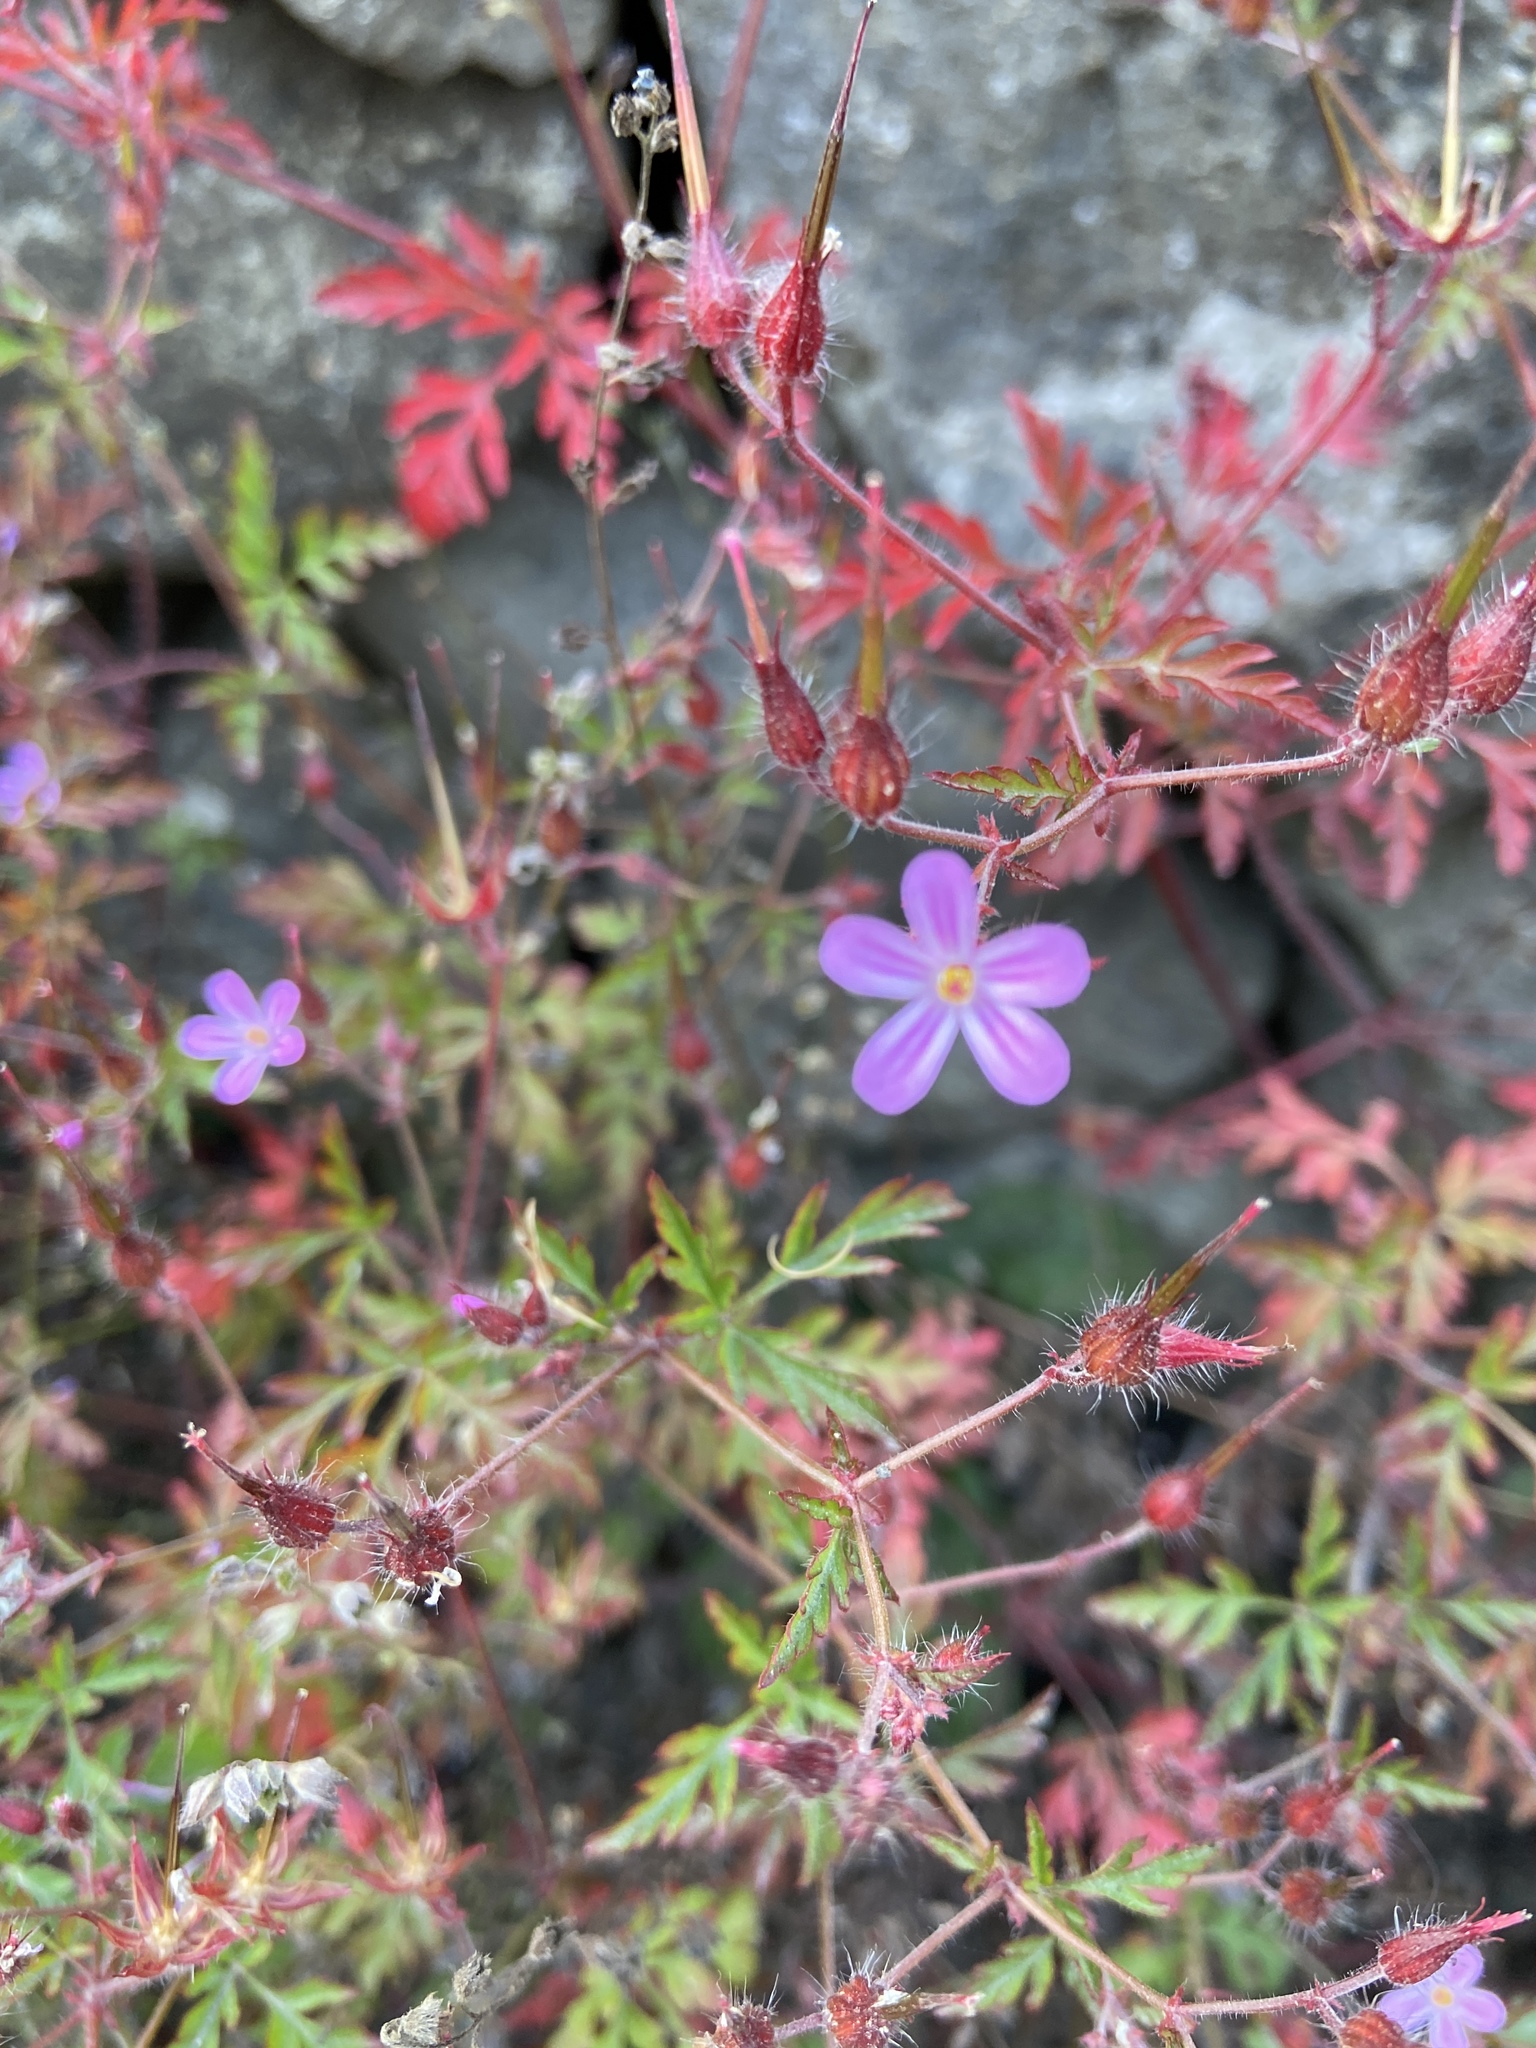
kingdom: Plantae
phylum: Tracheophyta
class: Magnoliopsida
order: Geraniales
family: Geraniaceae
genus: Geranium
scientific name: Geranium robertianum
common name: Herb-robert
